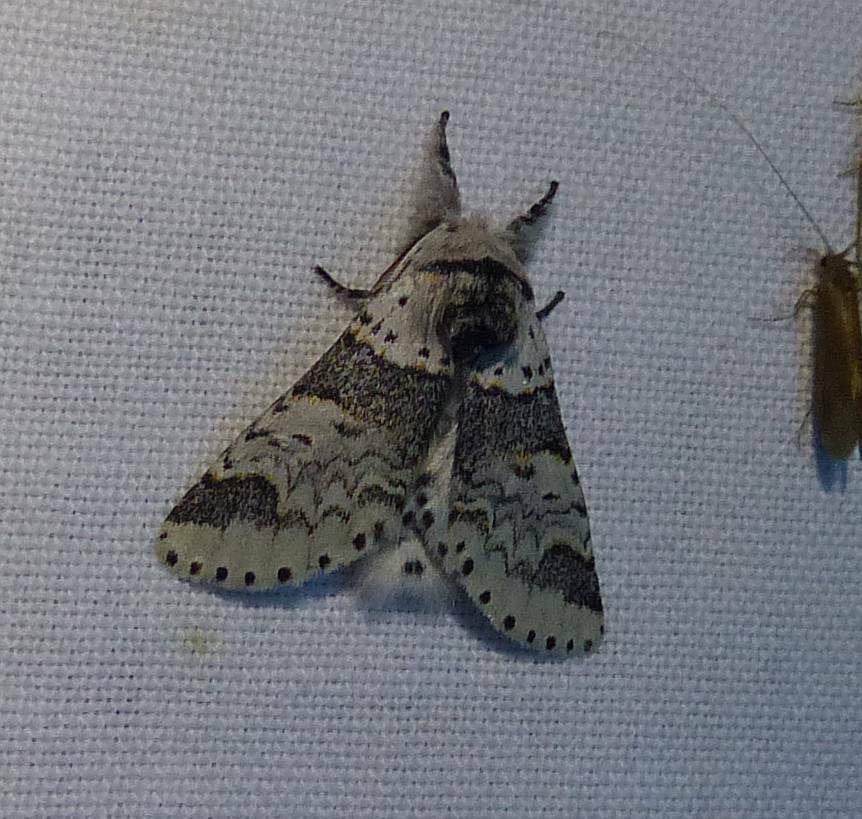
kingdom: Animalia
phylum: Arthropoda
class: Insecta
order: Lepidoptera
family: Notodontidae
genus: Furcula
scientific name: Furcula occidentalis
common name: Western furcula moth
